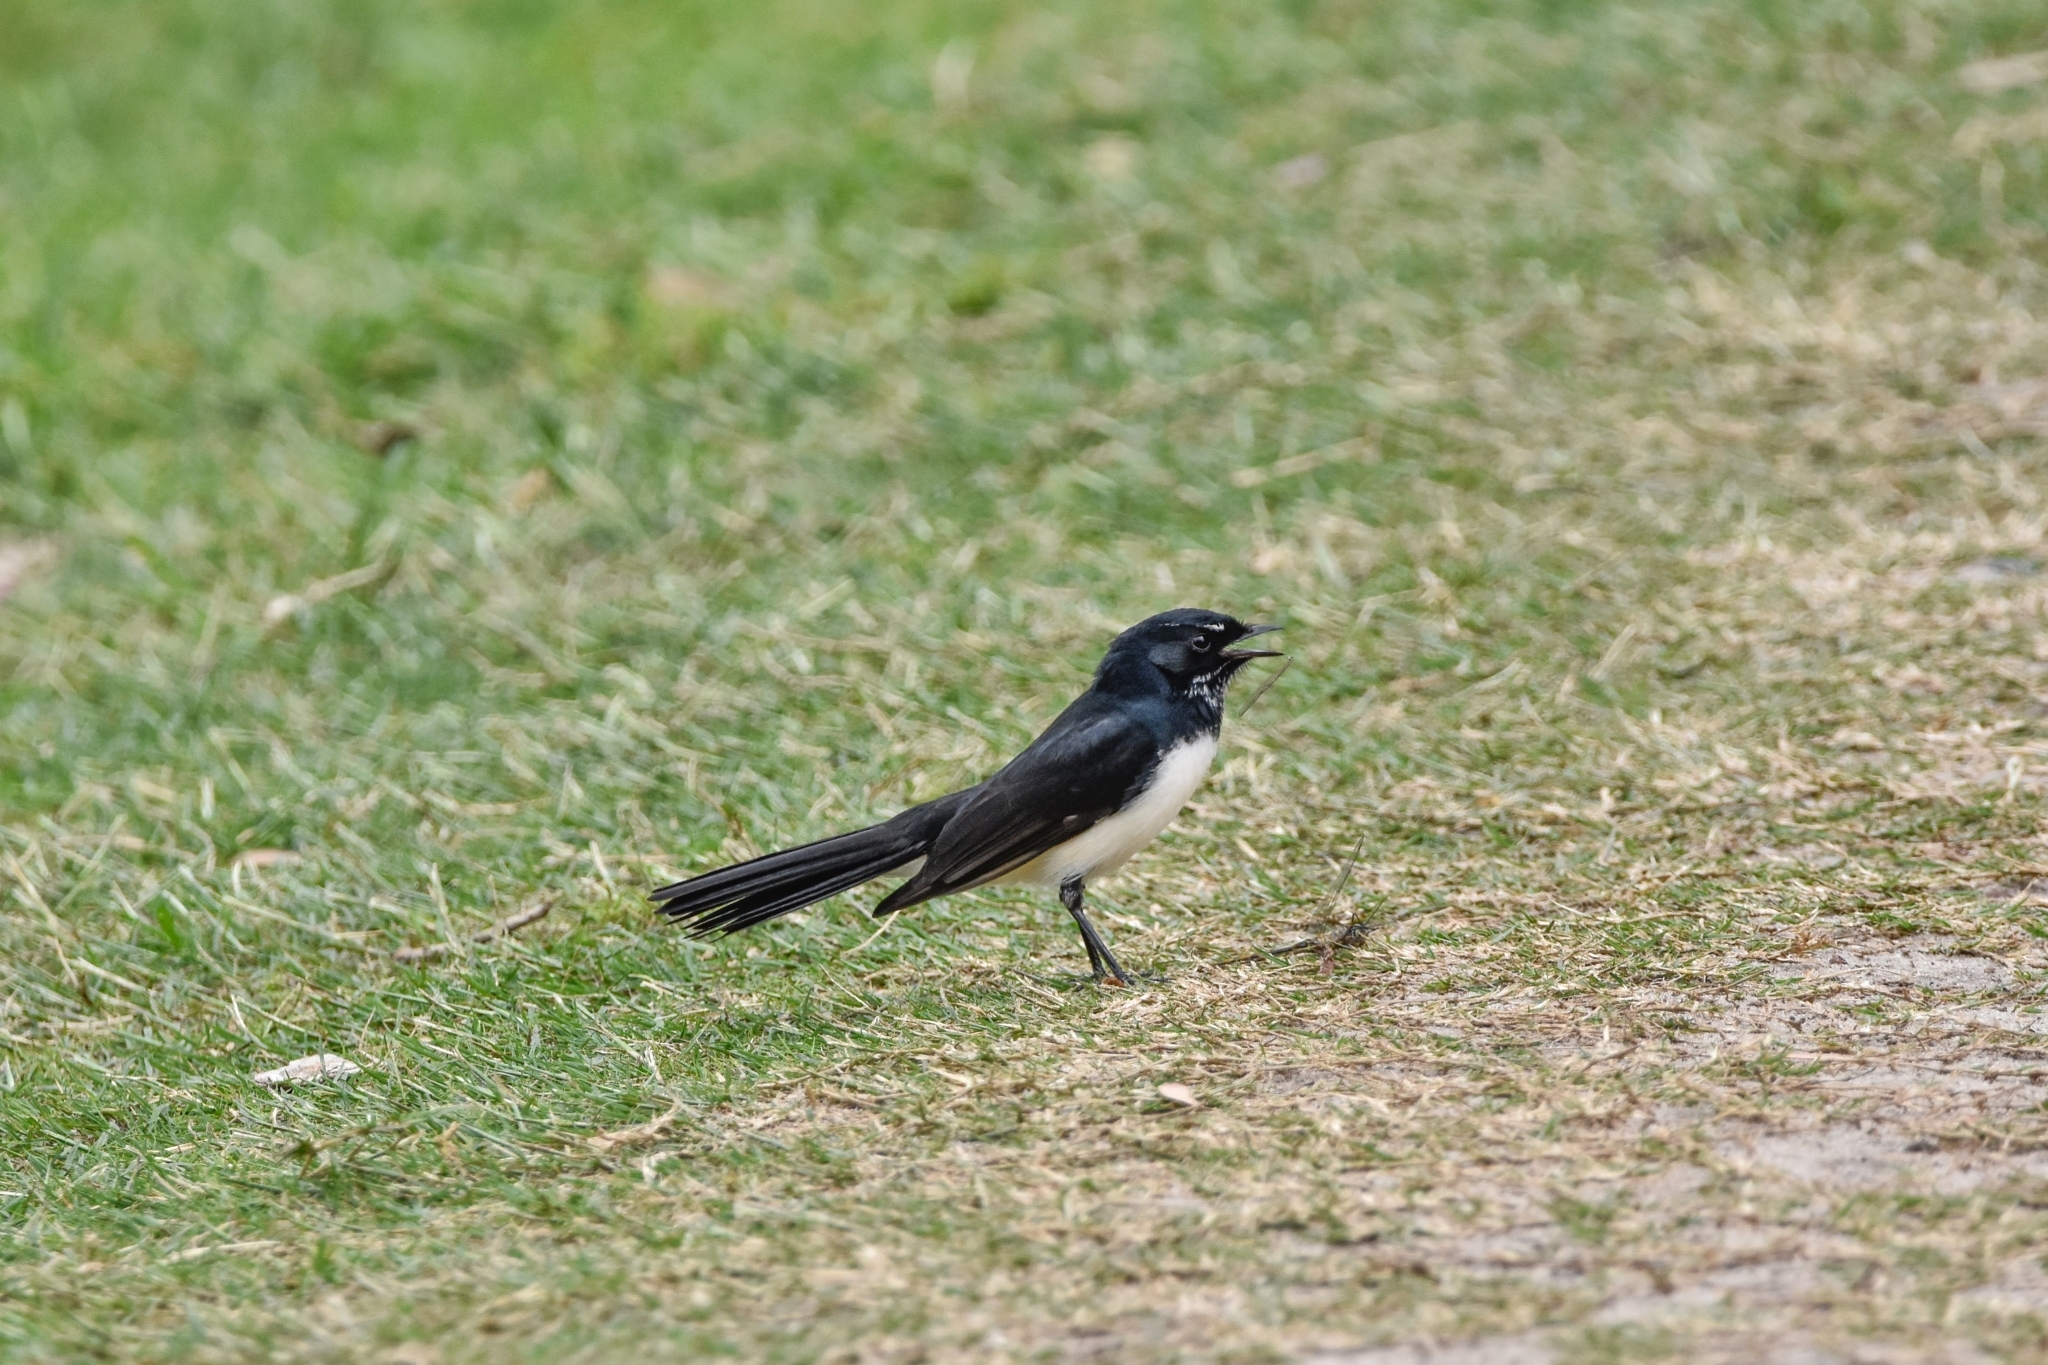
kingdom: Animalia
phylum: Chordata
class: Aves
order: Passeriformes
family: Rhipiduridae
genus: Rhipidura
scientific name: Rhipidura leucophrys
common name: Willie wagtail
